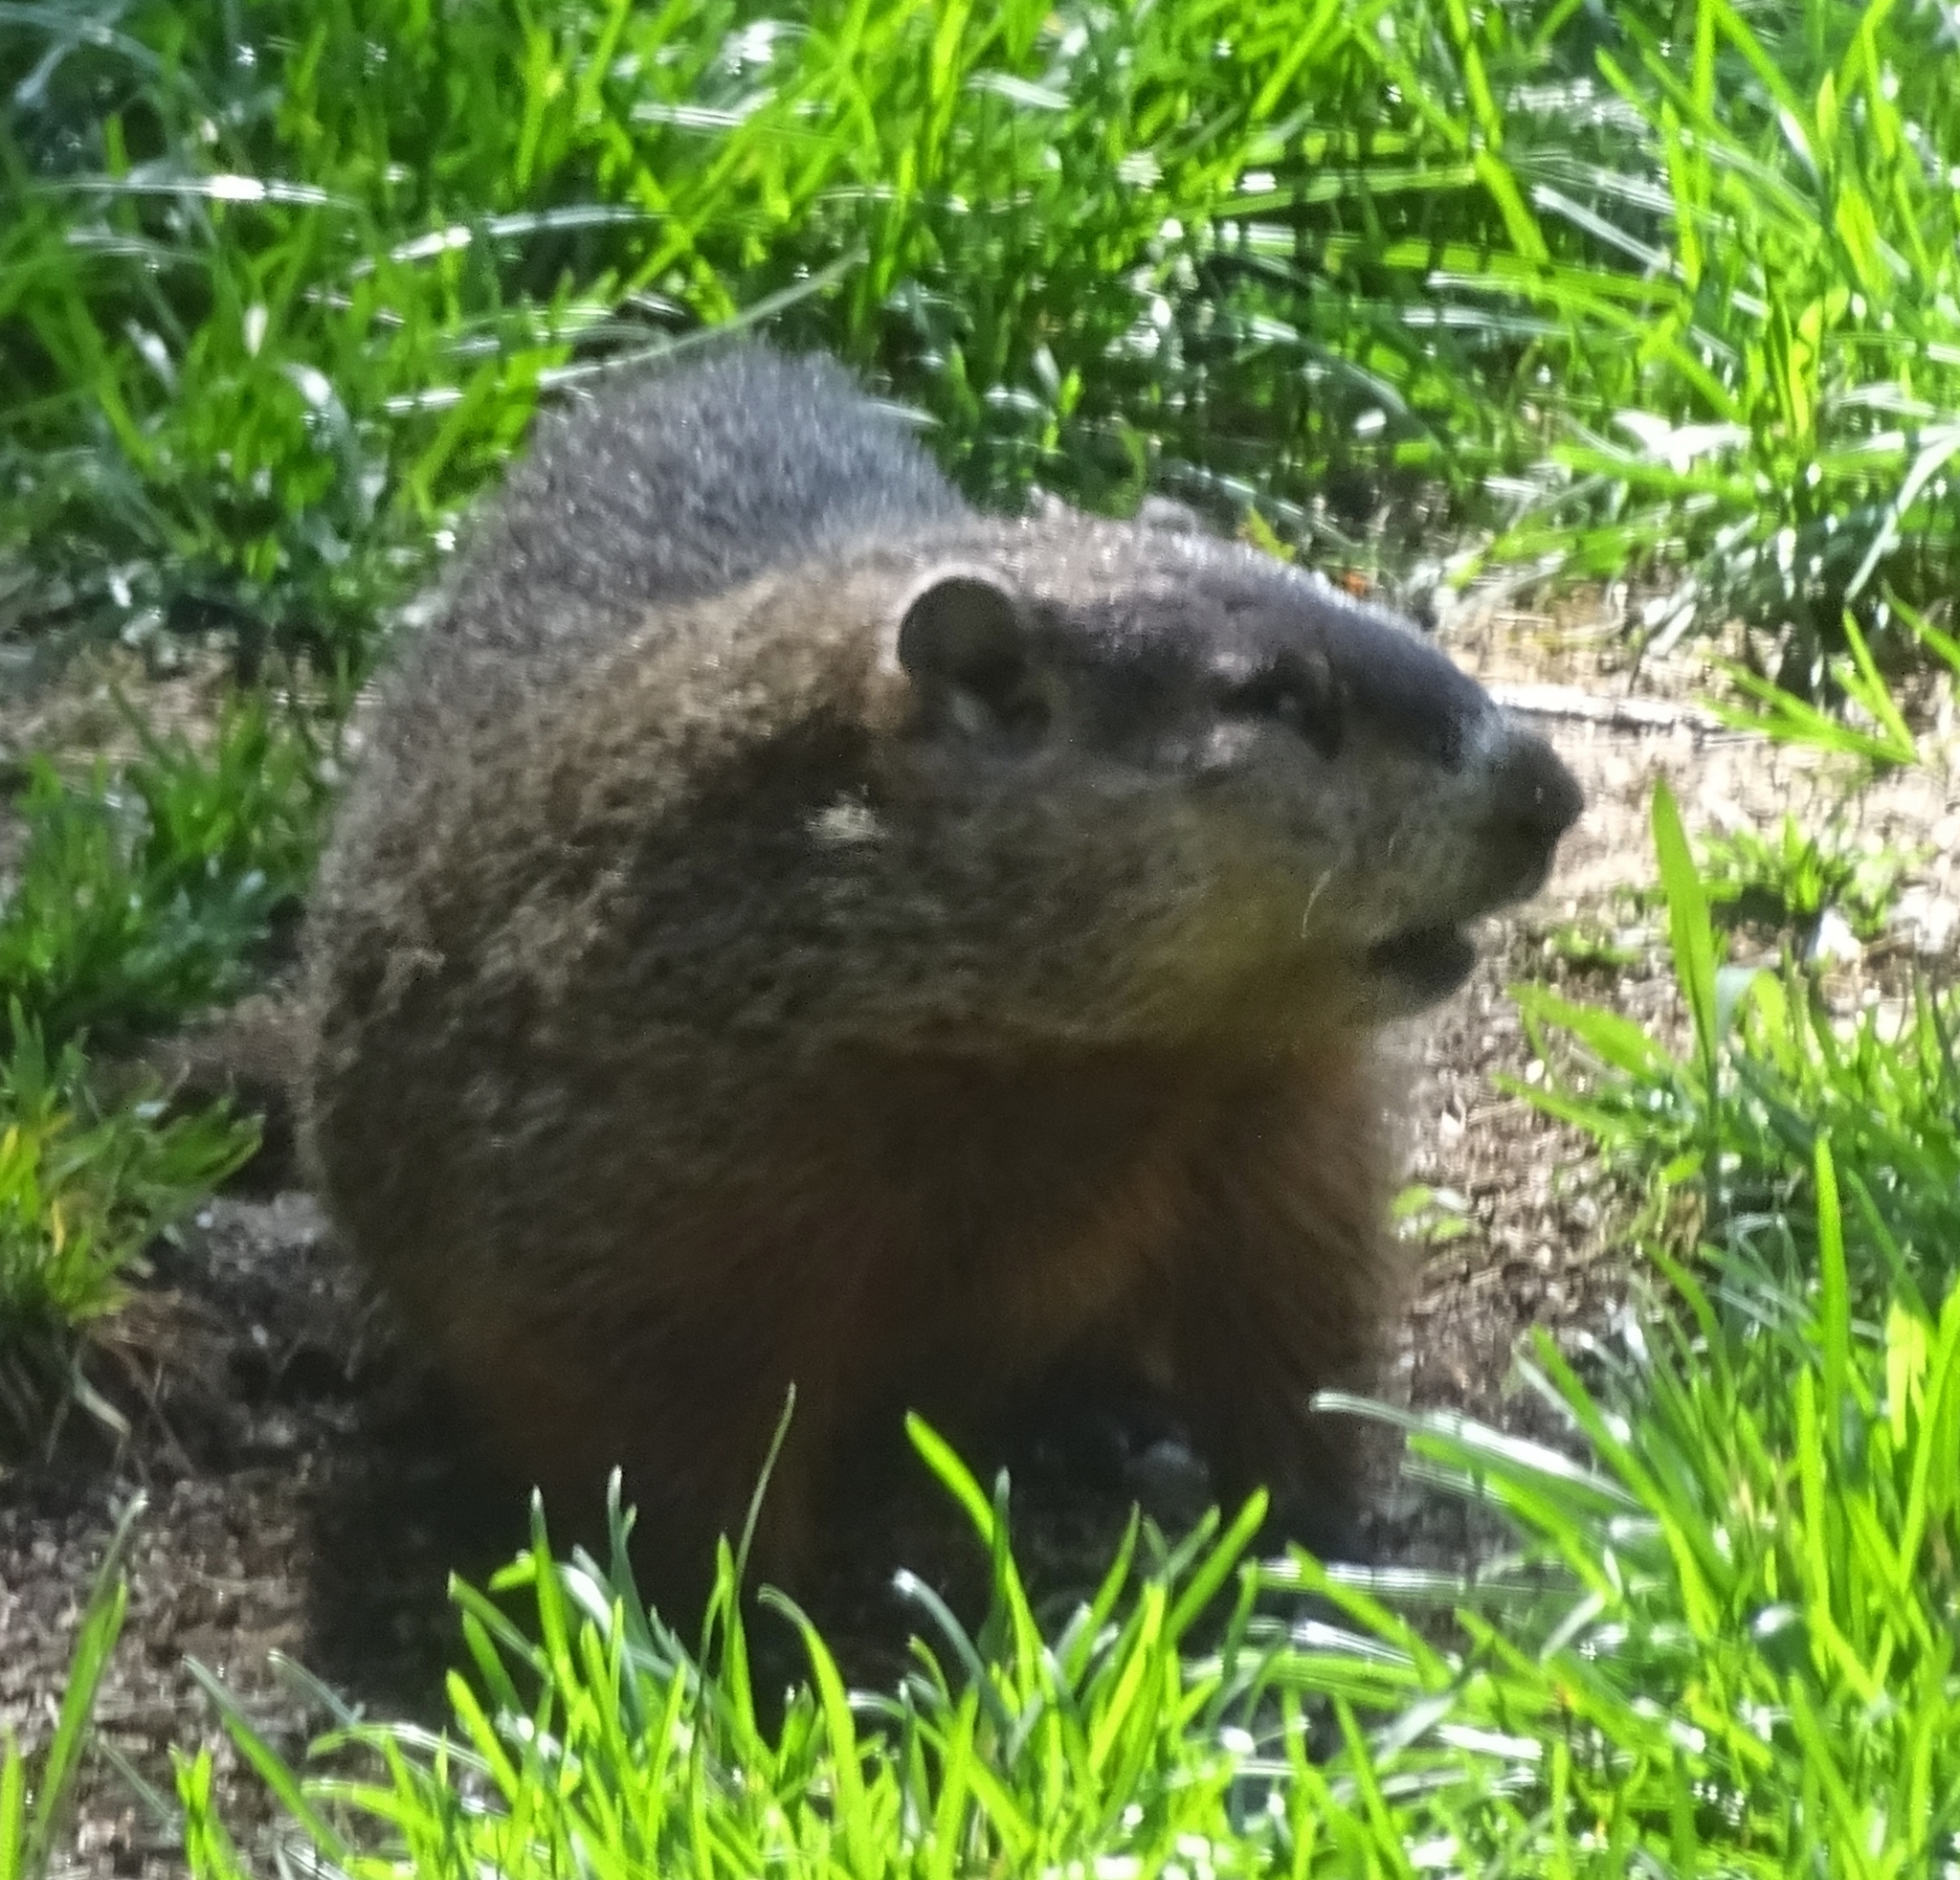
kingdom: Animalia
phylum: Chordata
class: Mammalia
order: Rodentia
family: Sciuridae
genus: Marmota
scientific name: Marmota monax
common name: Groundhog
